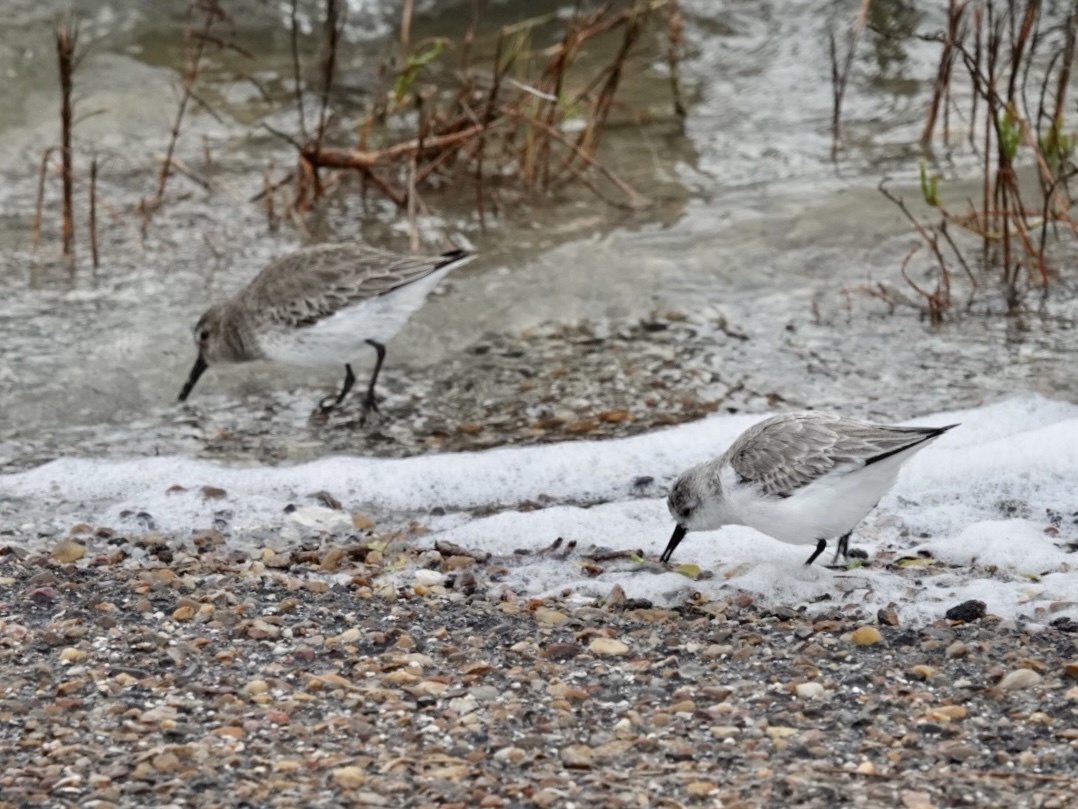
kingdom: Animalia
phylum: Chordata
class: Aves
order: Charadriiformes
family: Scolopacidae
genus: Calidris
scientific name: Calidris alba
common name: Sanderling
